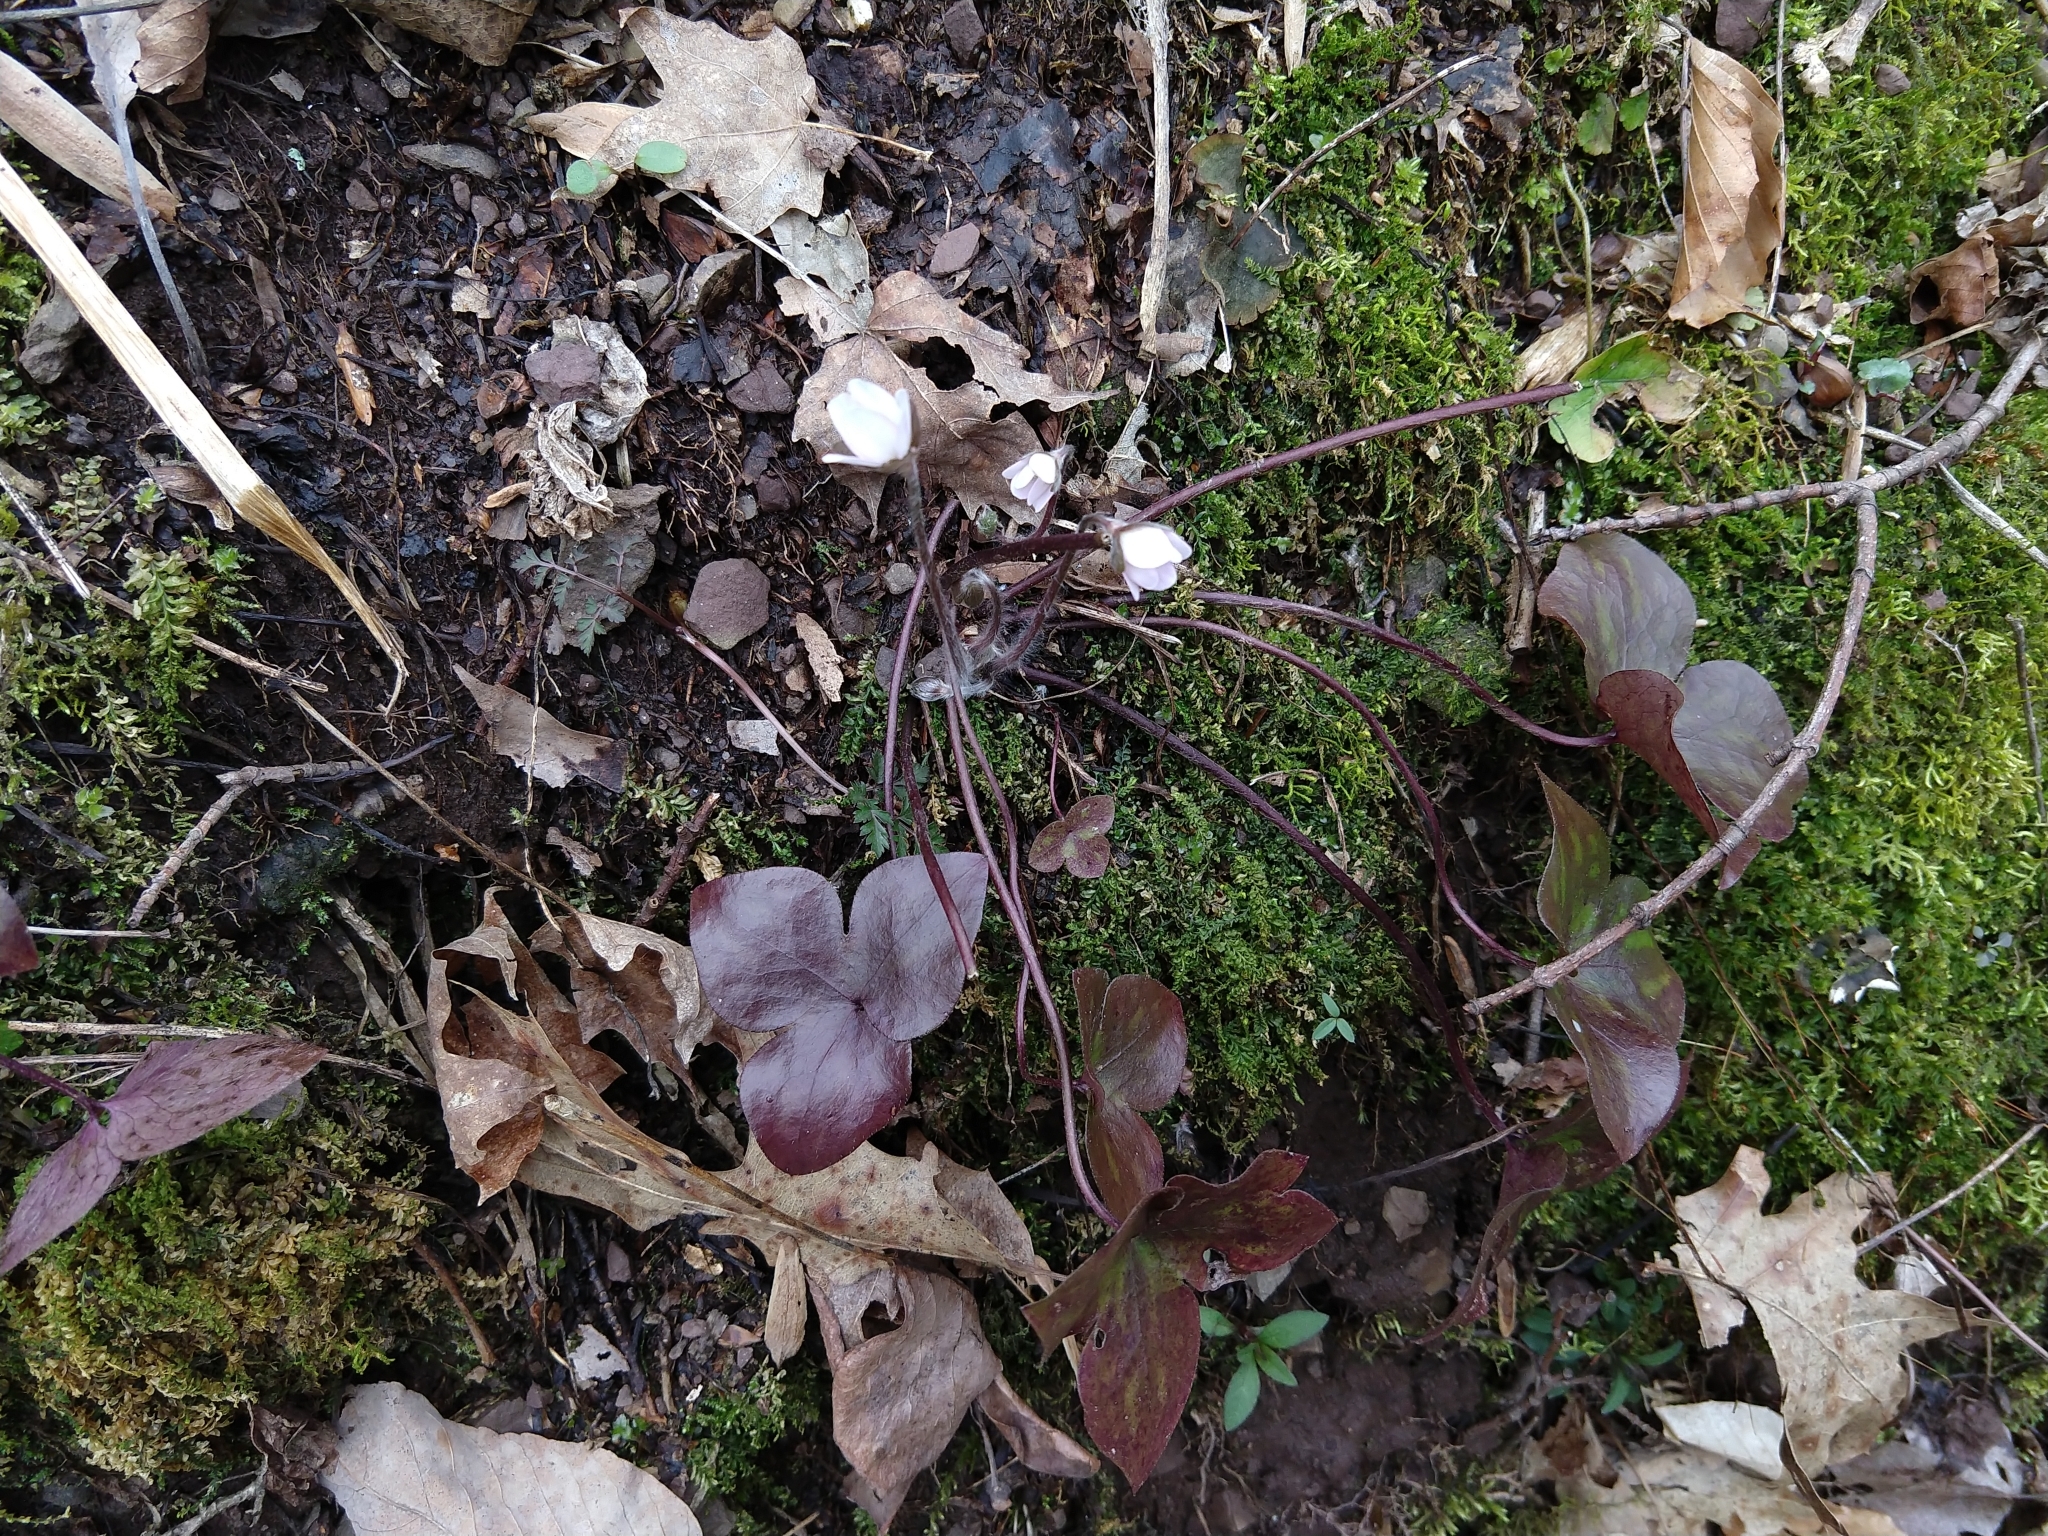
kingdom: Plantae
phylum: Tracheophyta
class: Magnoliopsida
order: Ranunculales
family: Ranunculaceae
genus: Hepatica
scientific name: Hepatica acutiloba
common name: Sharp-lobed hepatica
